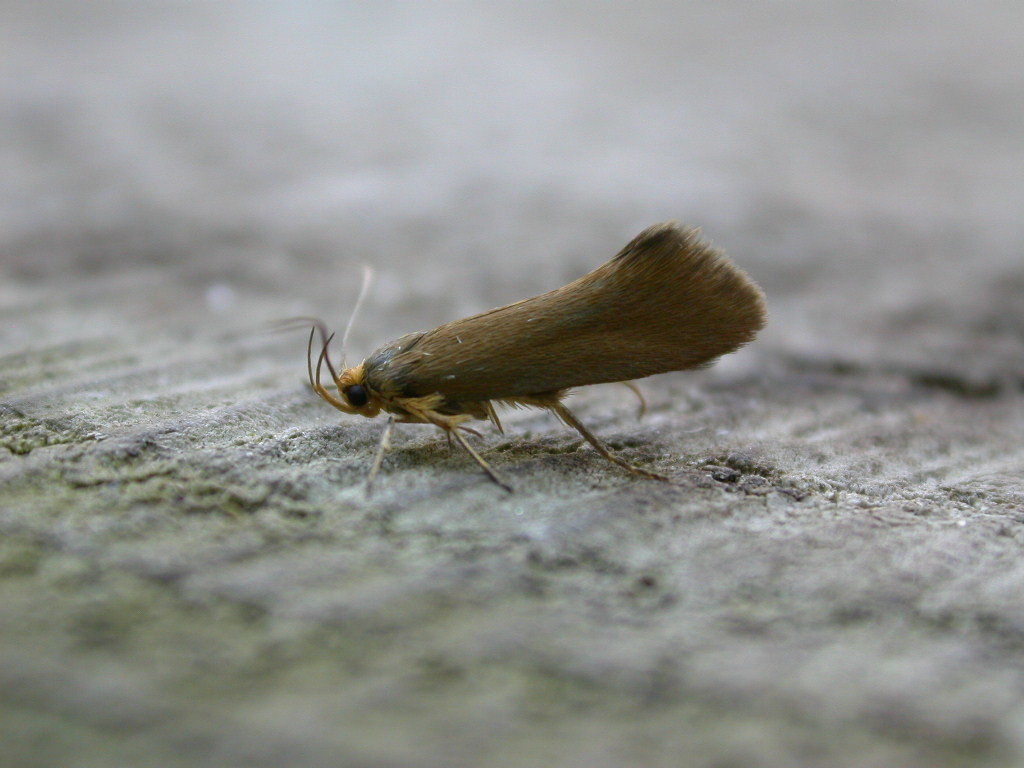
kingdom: Animalia
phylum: Arthropoda
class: Insecta
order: Lepidoptera
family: Oecophoridae
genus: Borkhausenia
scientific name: Borkhausenia Crassa unitella
